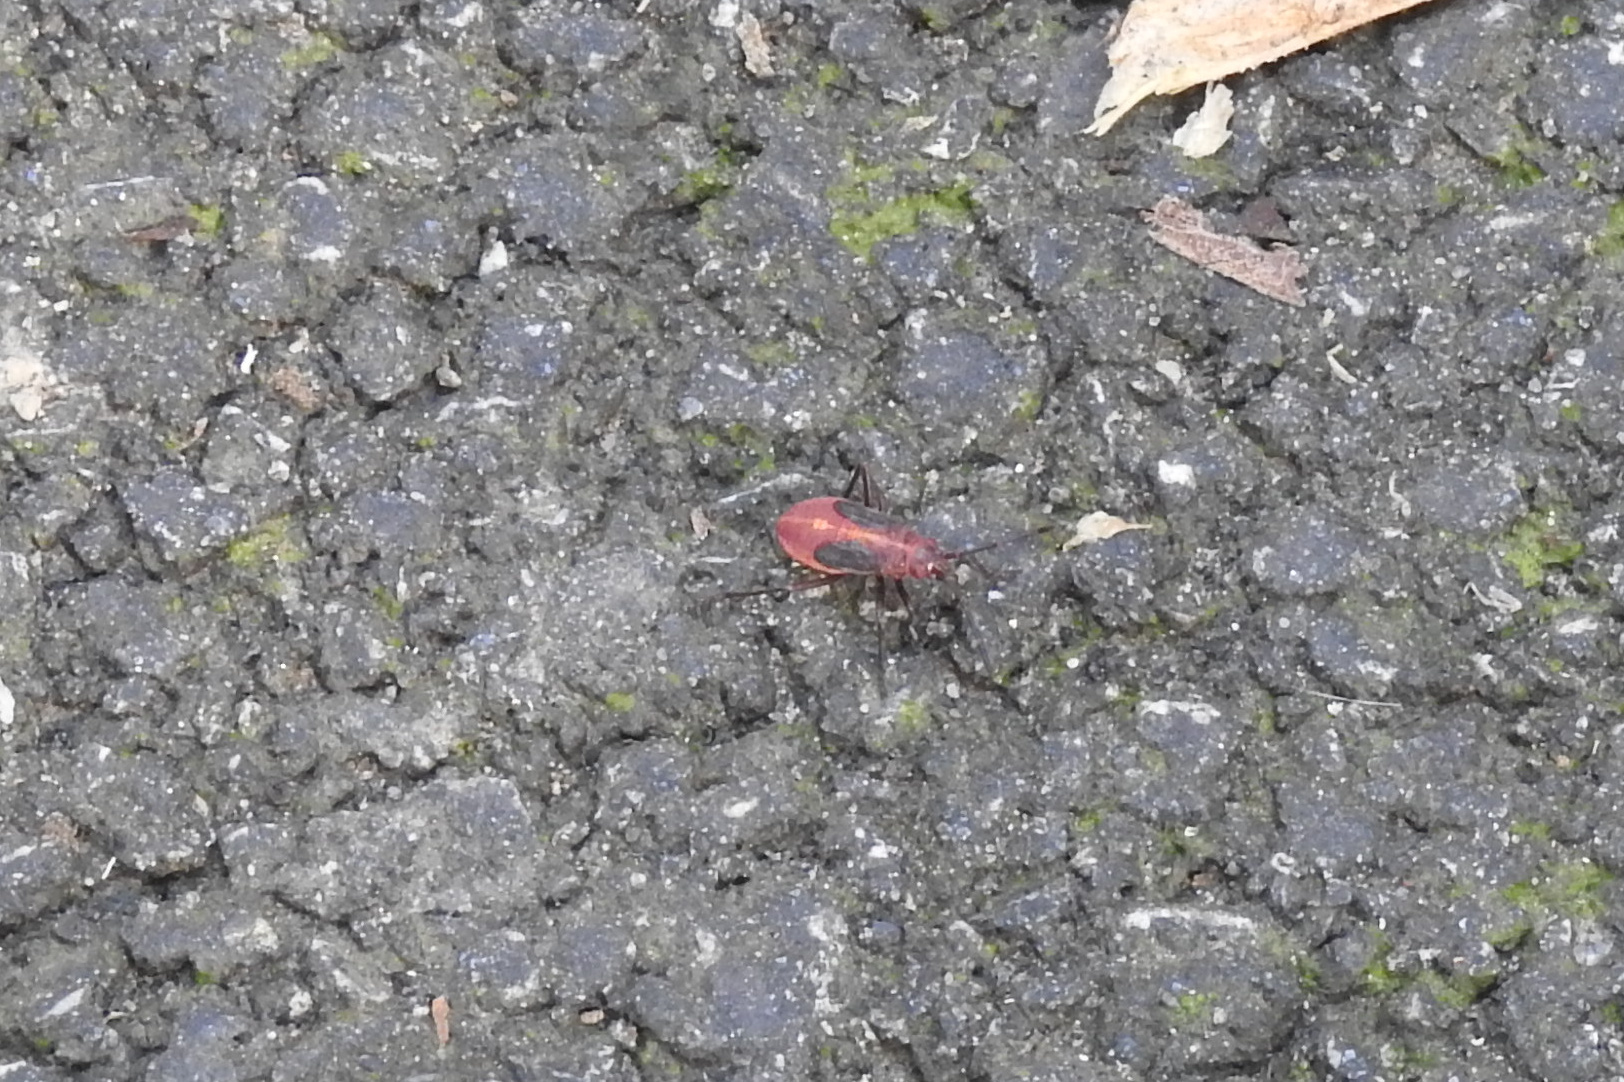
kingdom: Animalia
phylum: Arthropoda
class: Insecta
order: Hemiptera
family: Rhopalidae
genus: Boisea
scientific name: Boisea trivittata
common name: Boxelder bug
